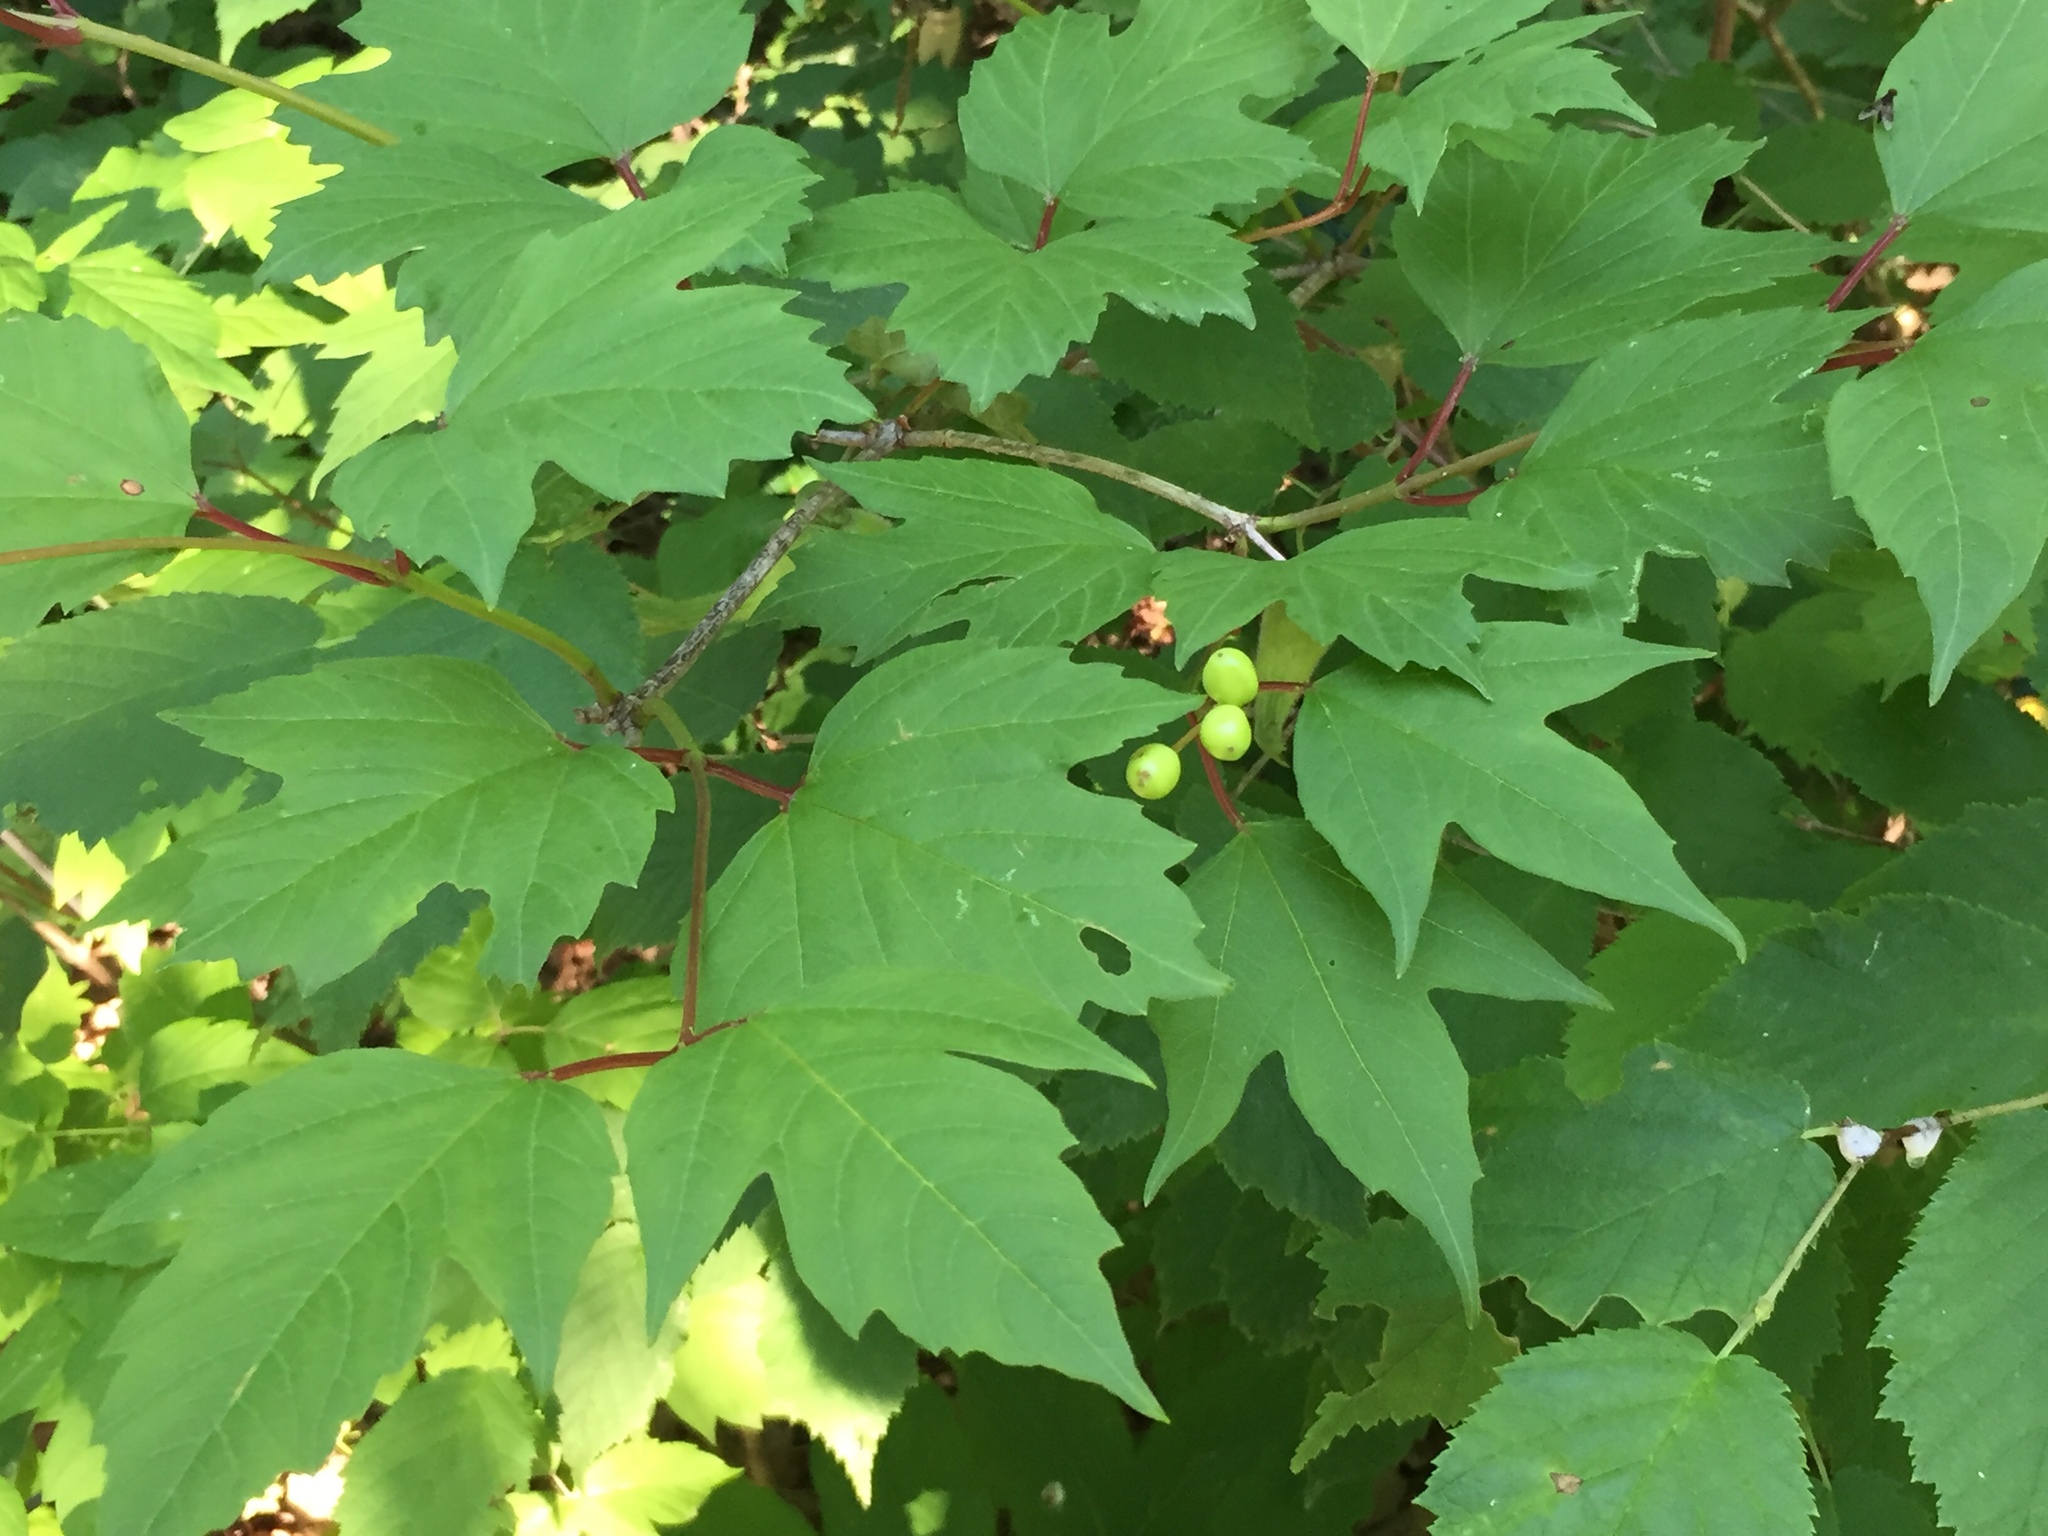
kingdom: Plantae
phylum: Tracheophyta
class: Magnoliopsida
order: Dipsacales
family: Viburnaceae
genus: Viburnum
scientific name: Viburnum trilobum
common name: American cranberrybush
